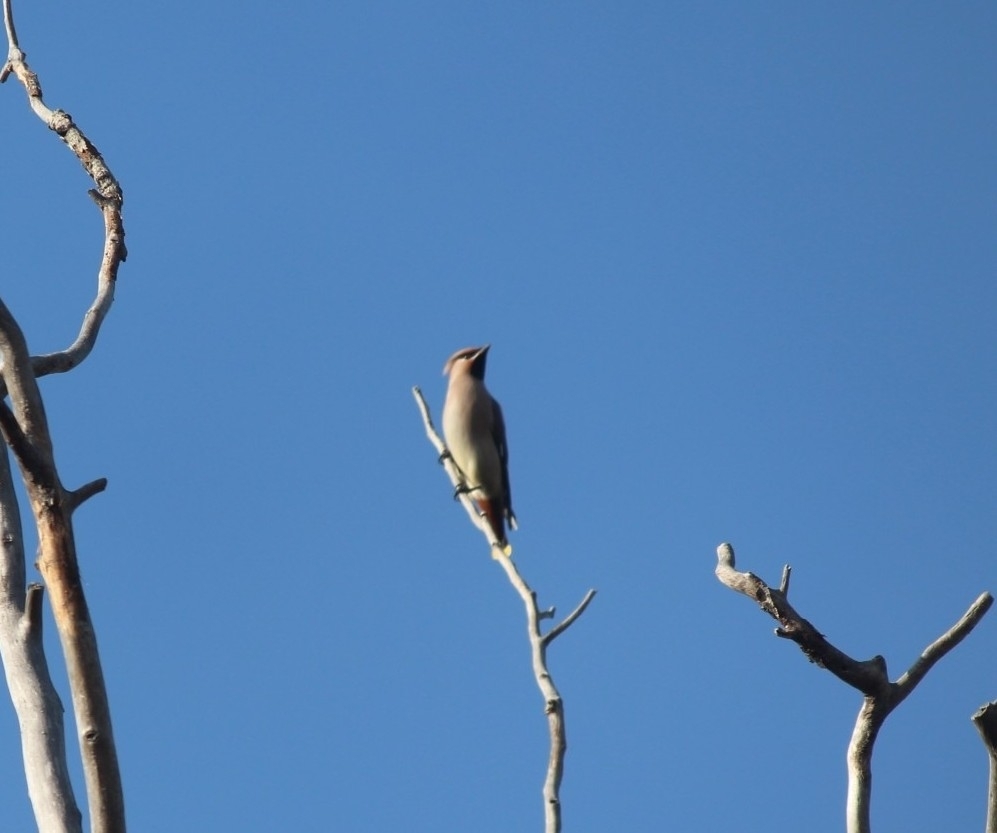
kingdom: Animalia
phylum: Chordata
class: Aves
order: Passeriformes
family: Bombycillidae
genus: Bombycilla
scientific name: Bombycilla garrulus
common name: Bohemian waxwing
